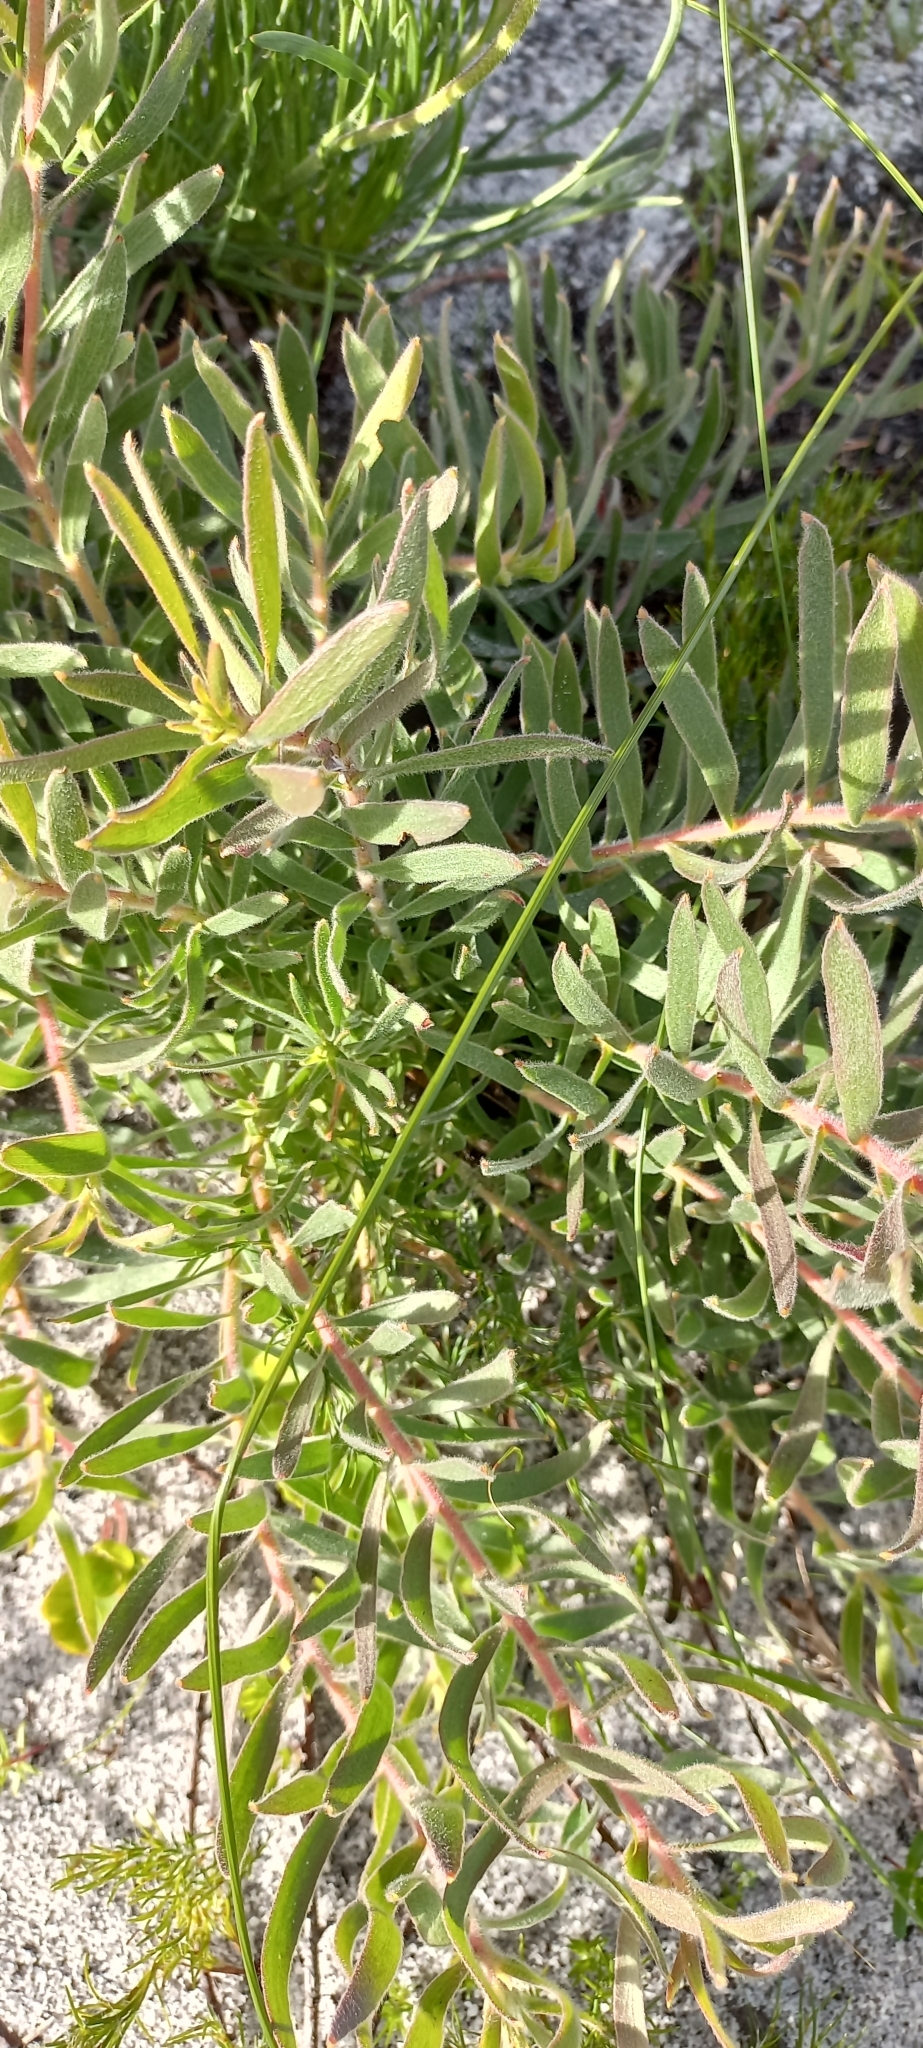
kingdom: Plantae
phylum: Tracheophyta
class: Magnoliopsida
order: Proteales
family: Proteaceae
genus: Leucospermum
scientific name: Leucospermum prostratum
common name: Yellow-trailing pincushion
